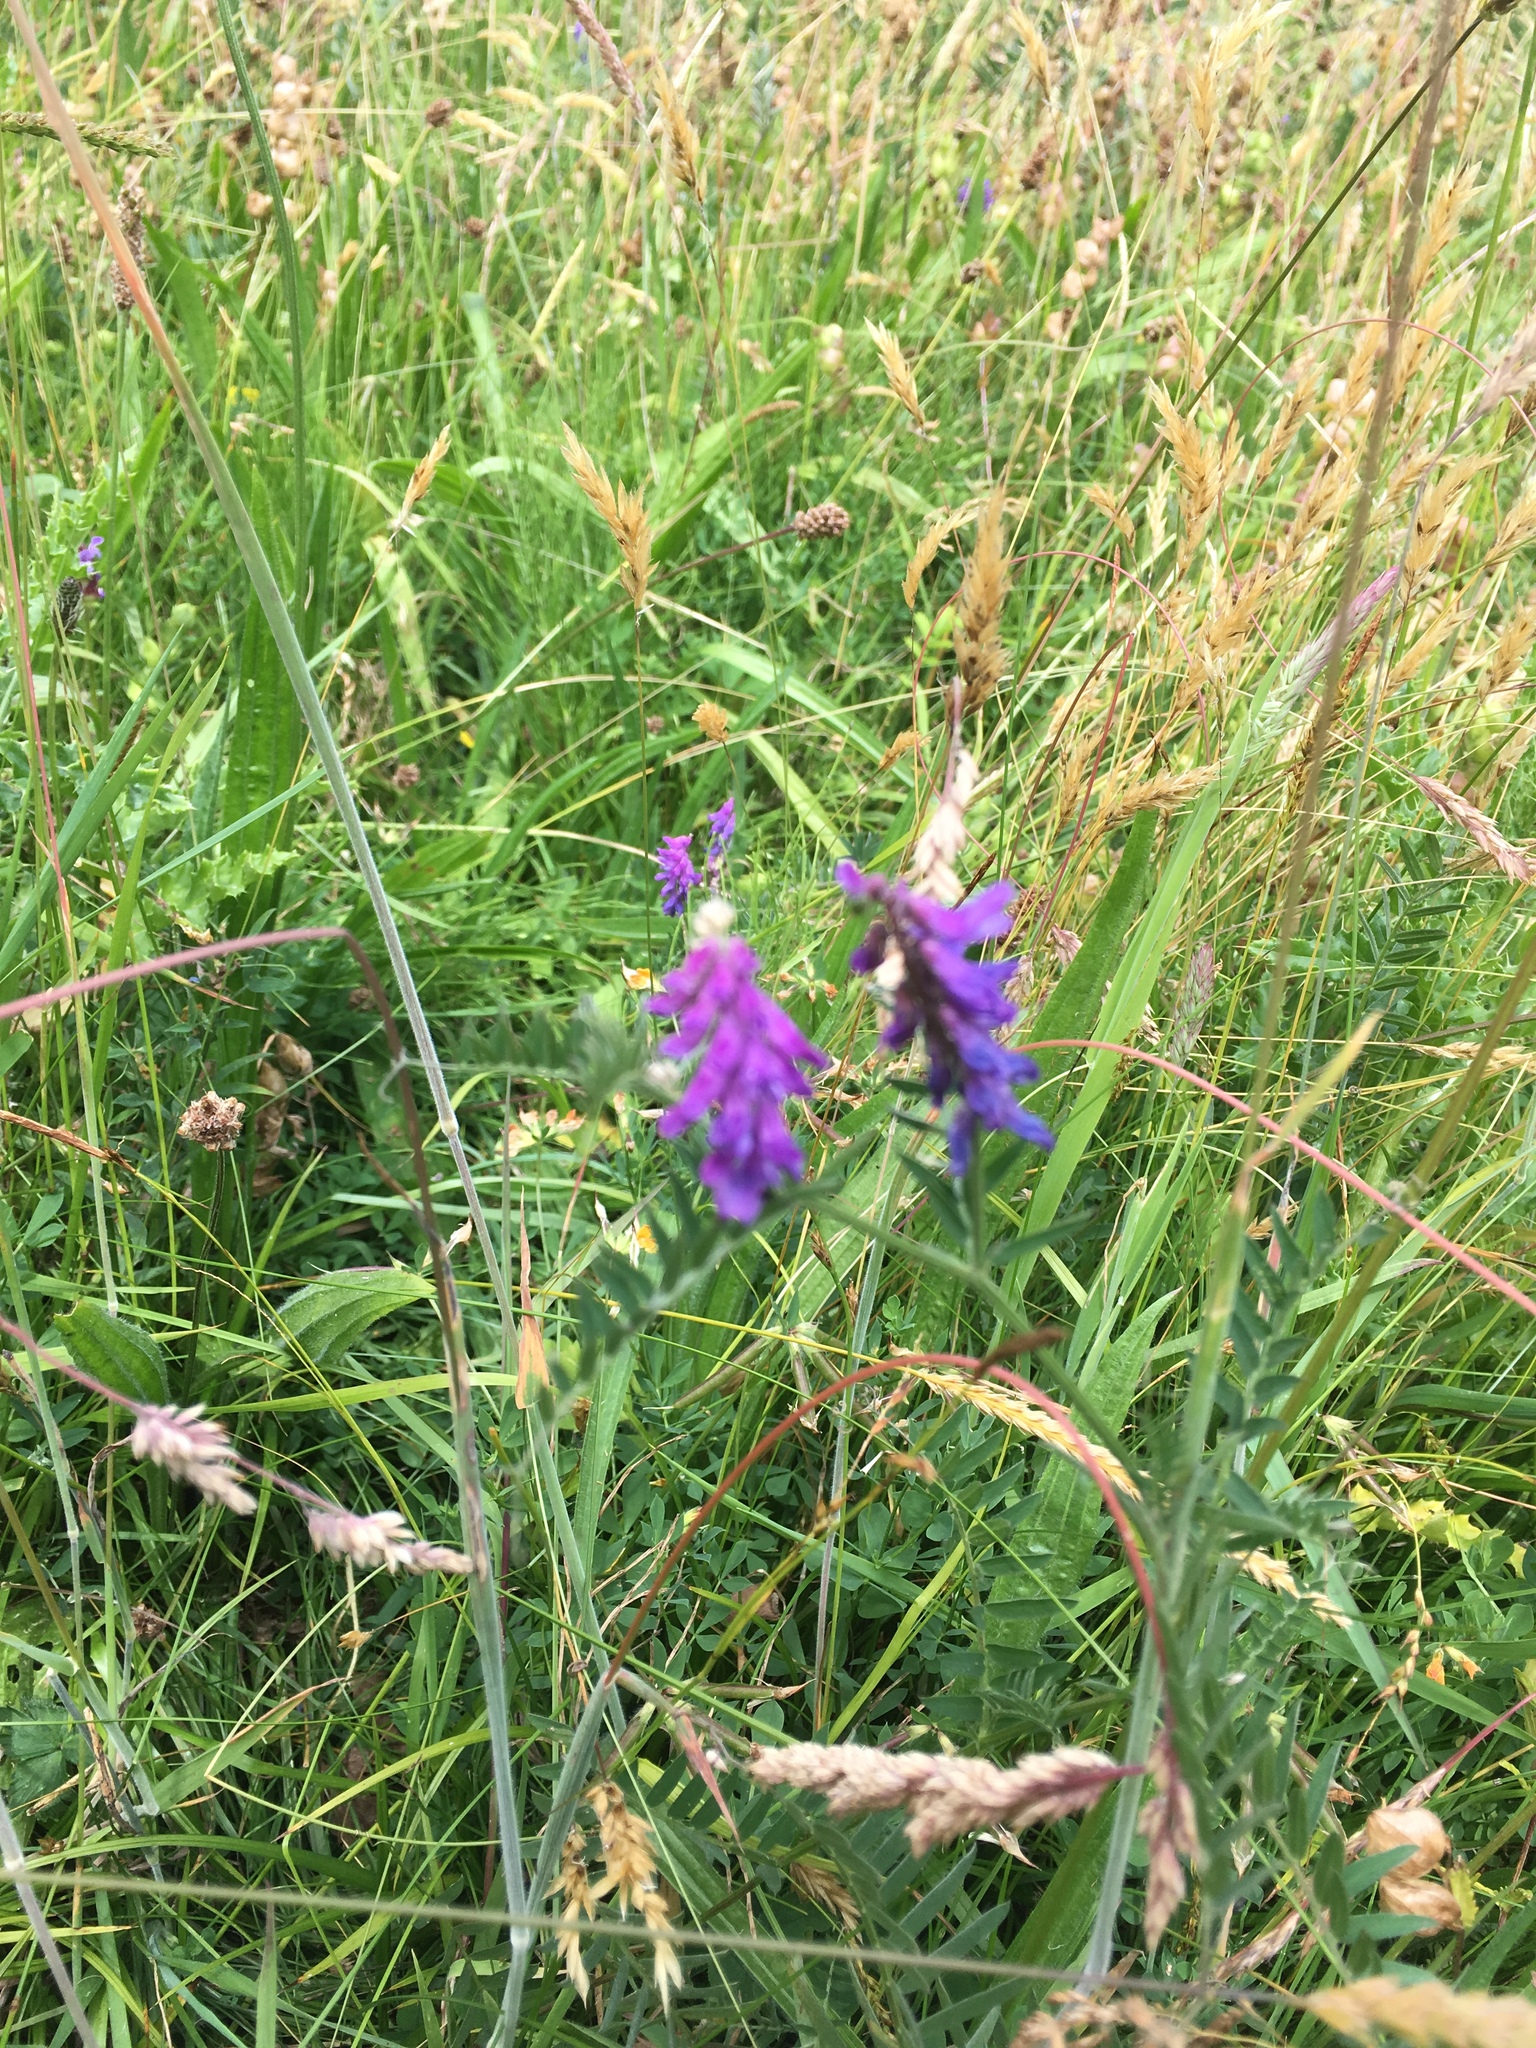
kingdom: Plantae
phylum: Tracheophyta
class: Magnoliopsida
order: Fabales
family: Fabaceae
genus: Vicia
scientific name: Vicia cracca
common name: Bird vetch
